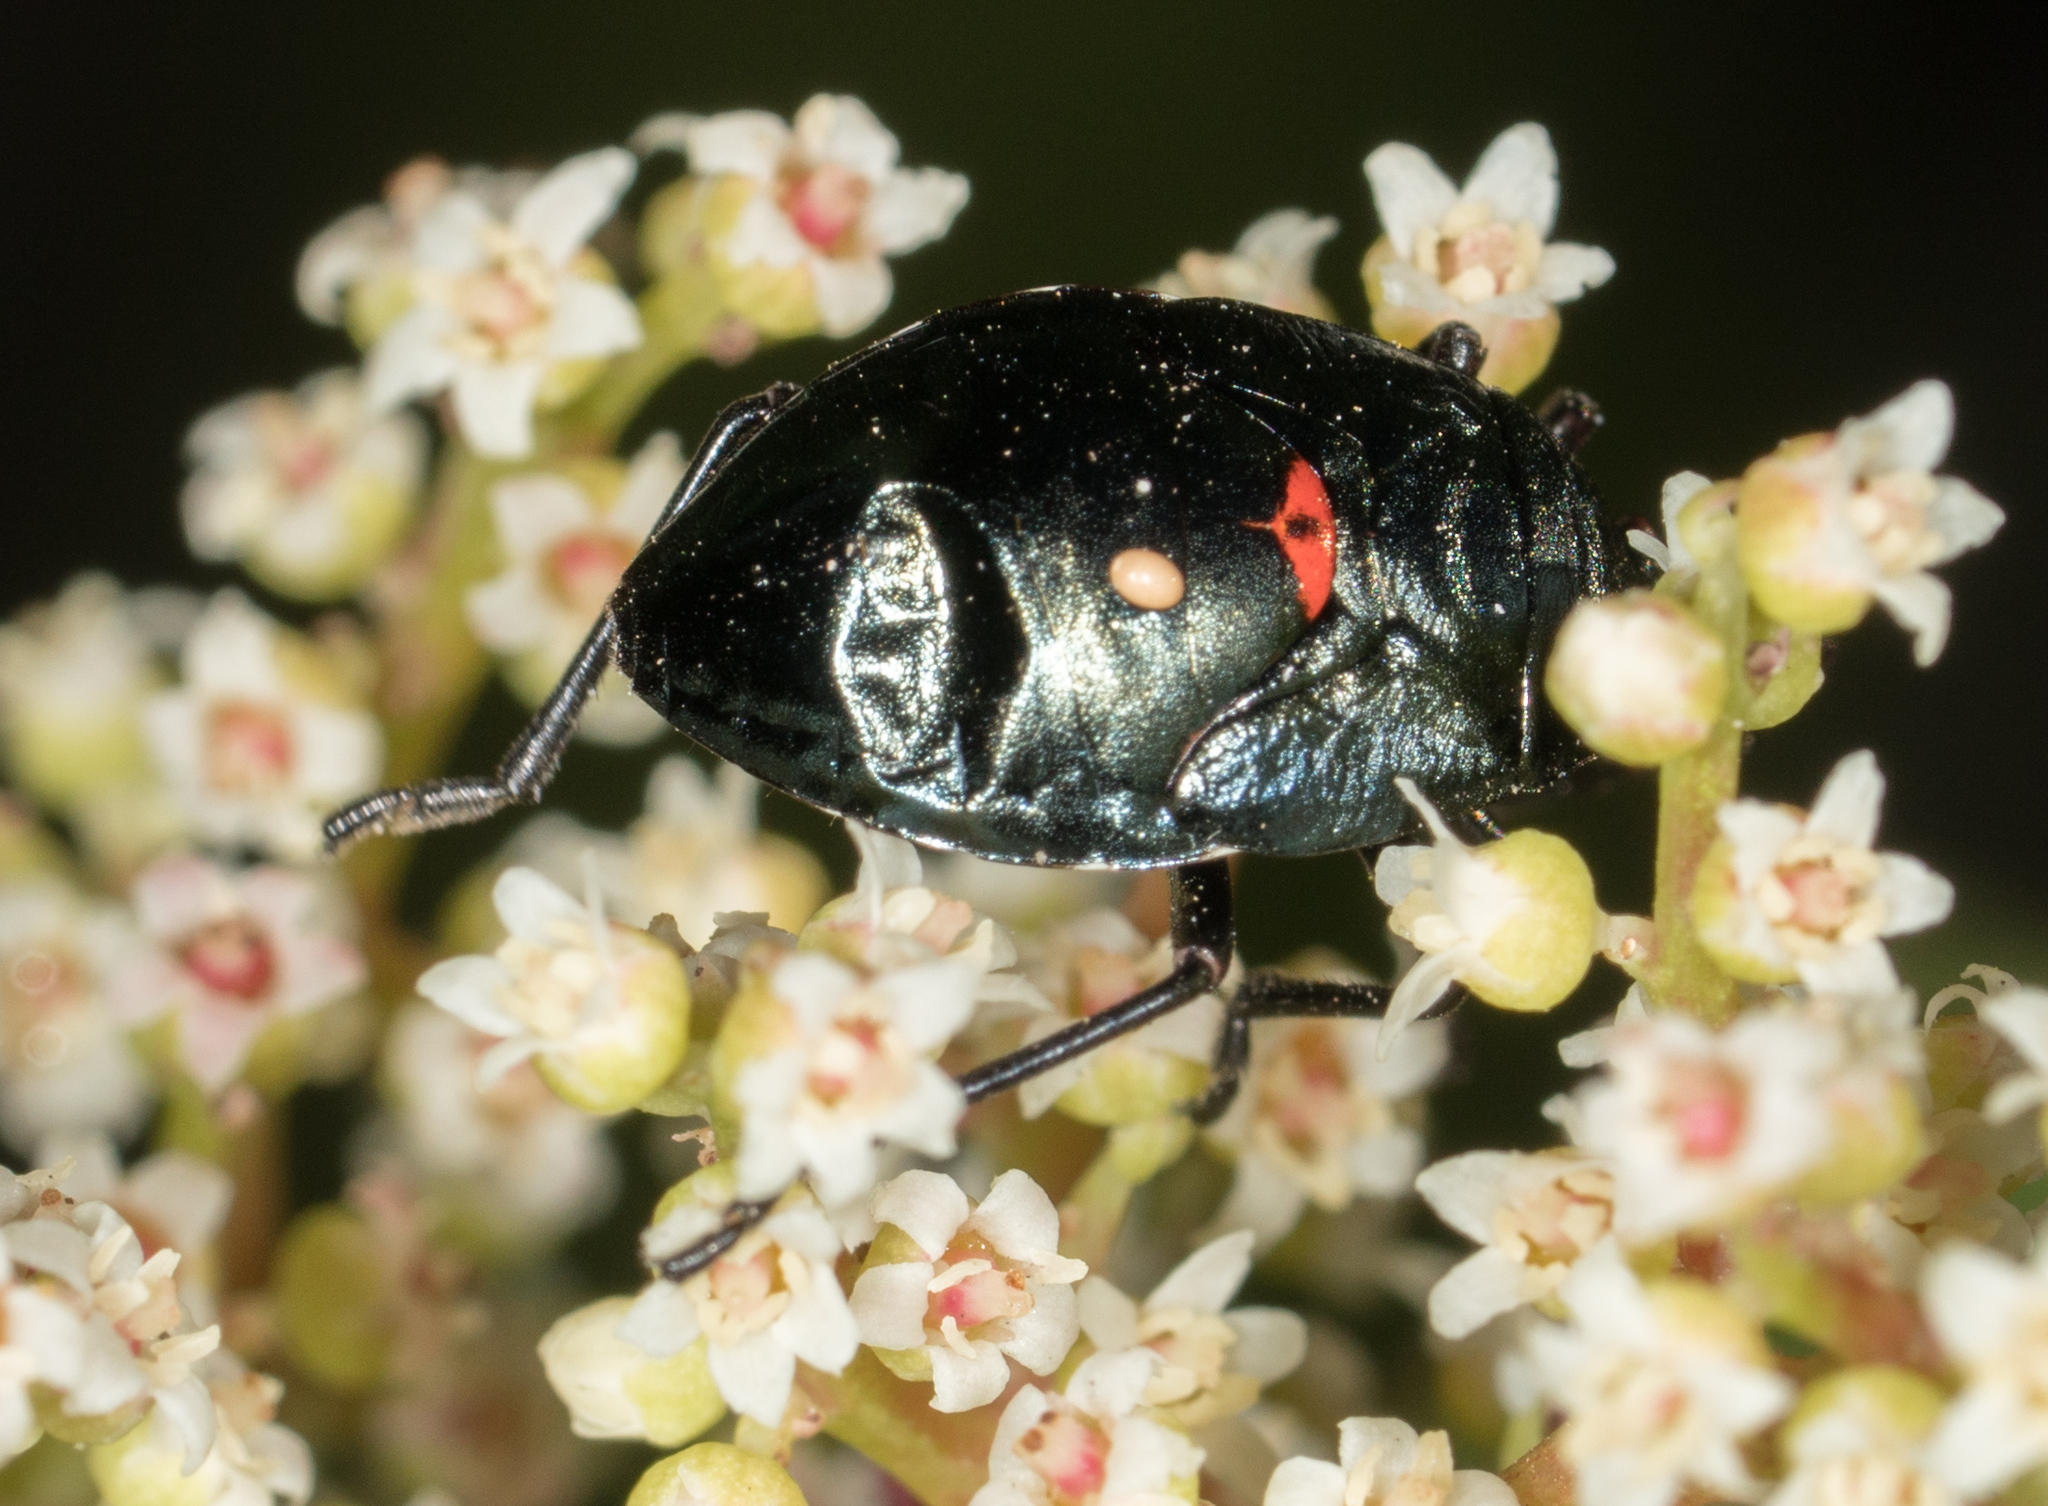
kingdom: Animalia
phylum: Arthropoda
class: Insecta
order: Hemiptera
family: Largidae
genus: Largus
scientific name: Largus californicus
